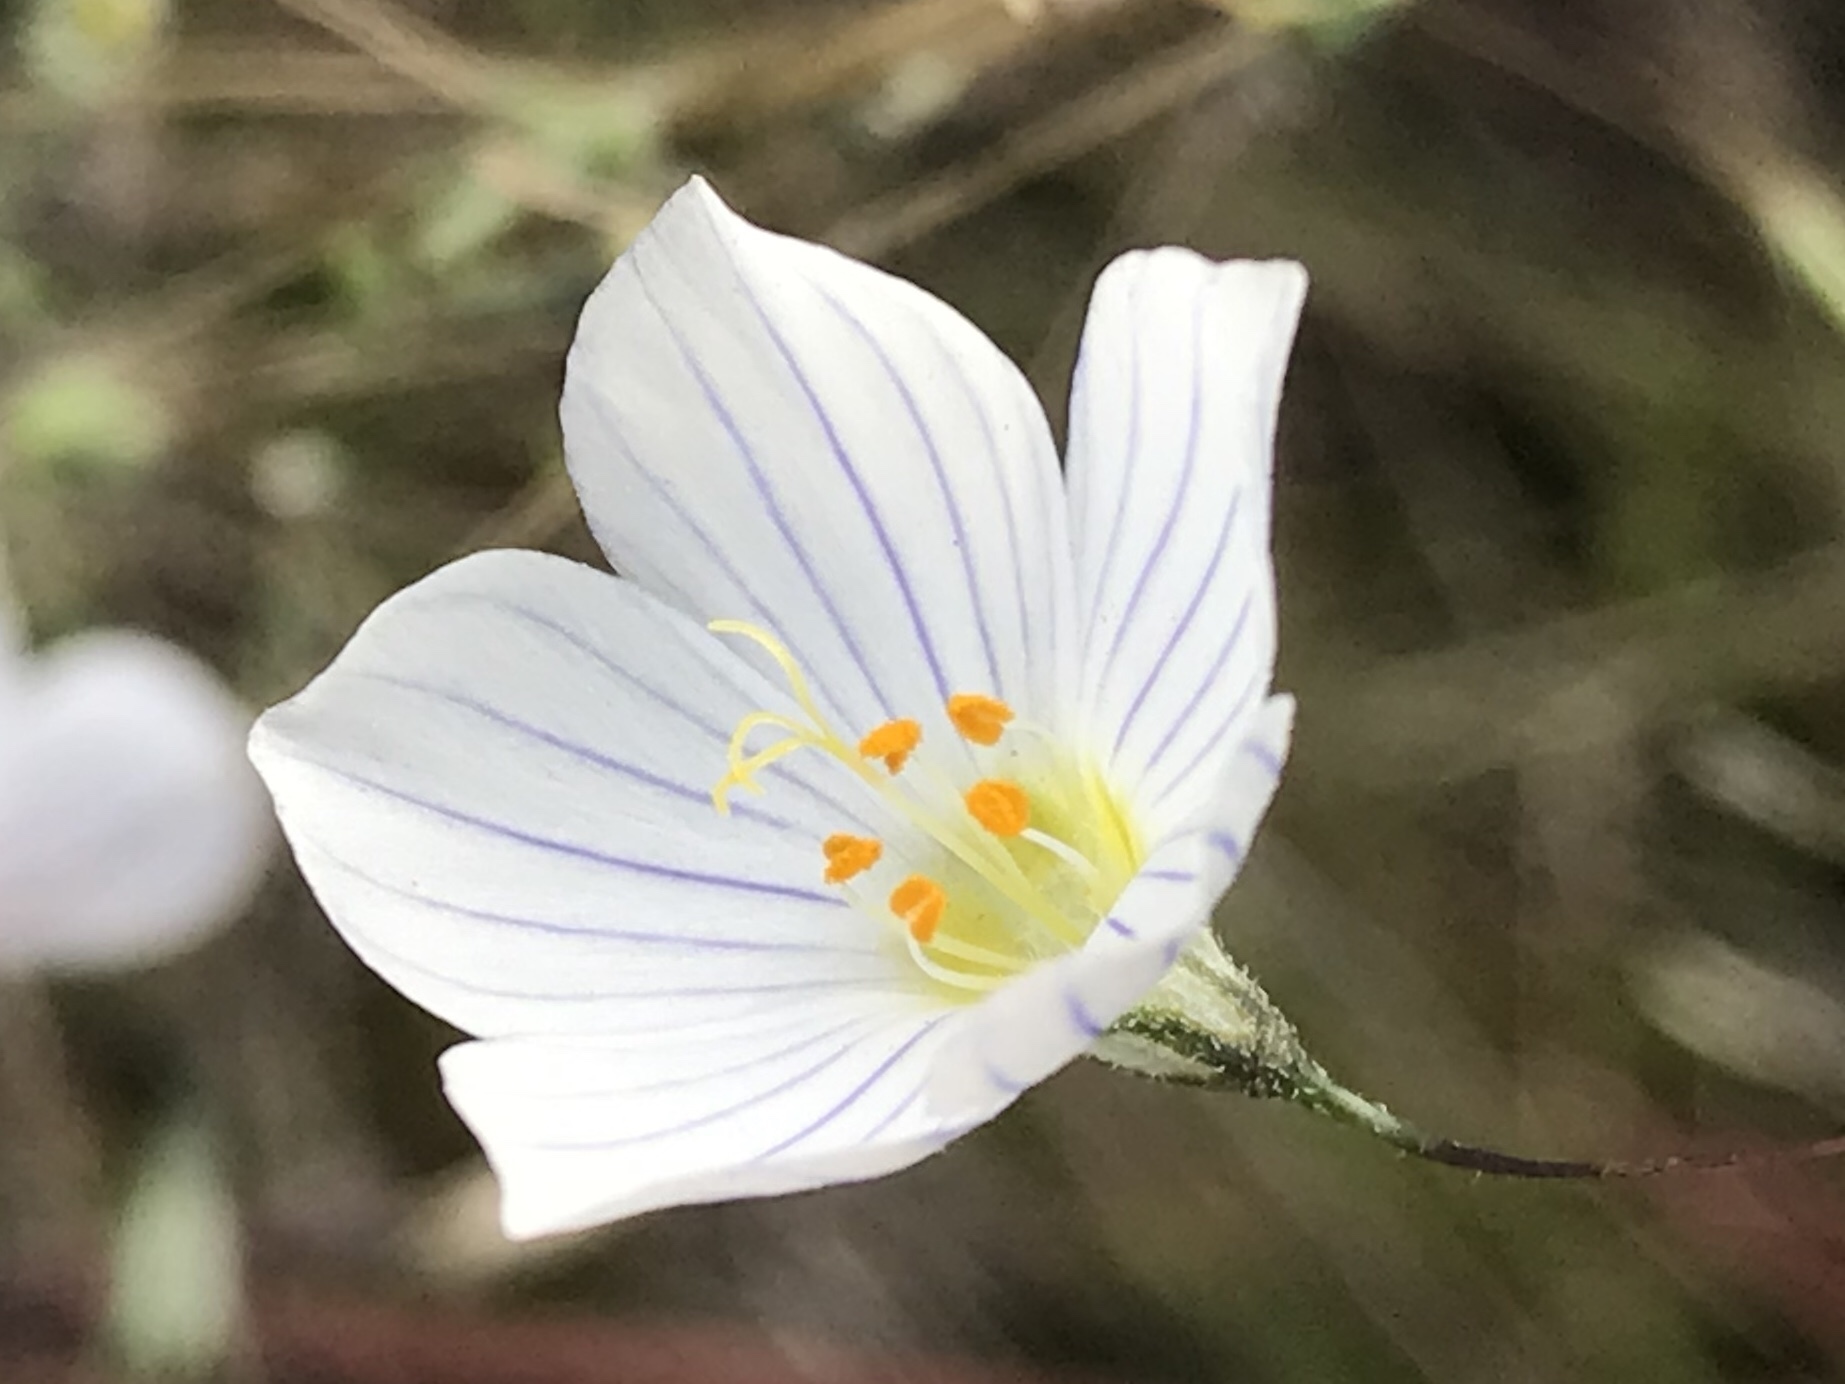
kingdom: Plantae
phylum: Tracheophyta
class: Magnoliopsida
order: Ericales
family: Polemoniaceae
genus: Leptosiphon
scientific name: Leptosiphon liniflorus
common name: Narrowflower flaxflower
